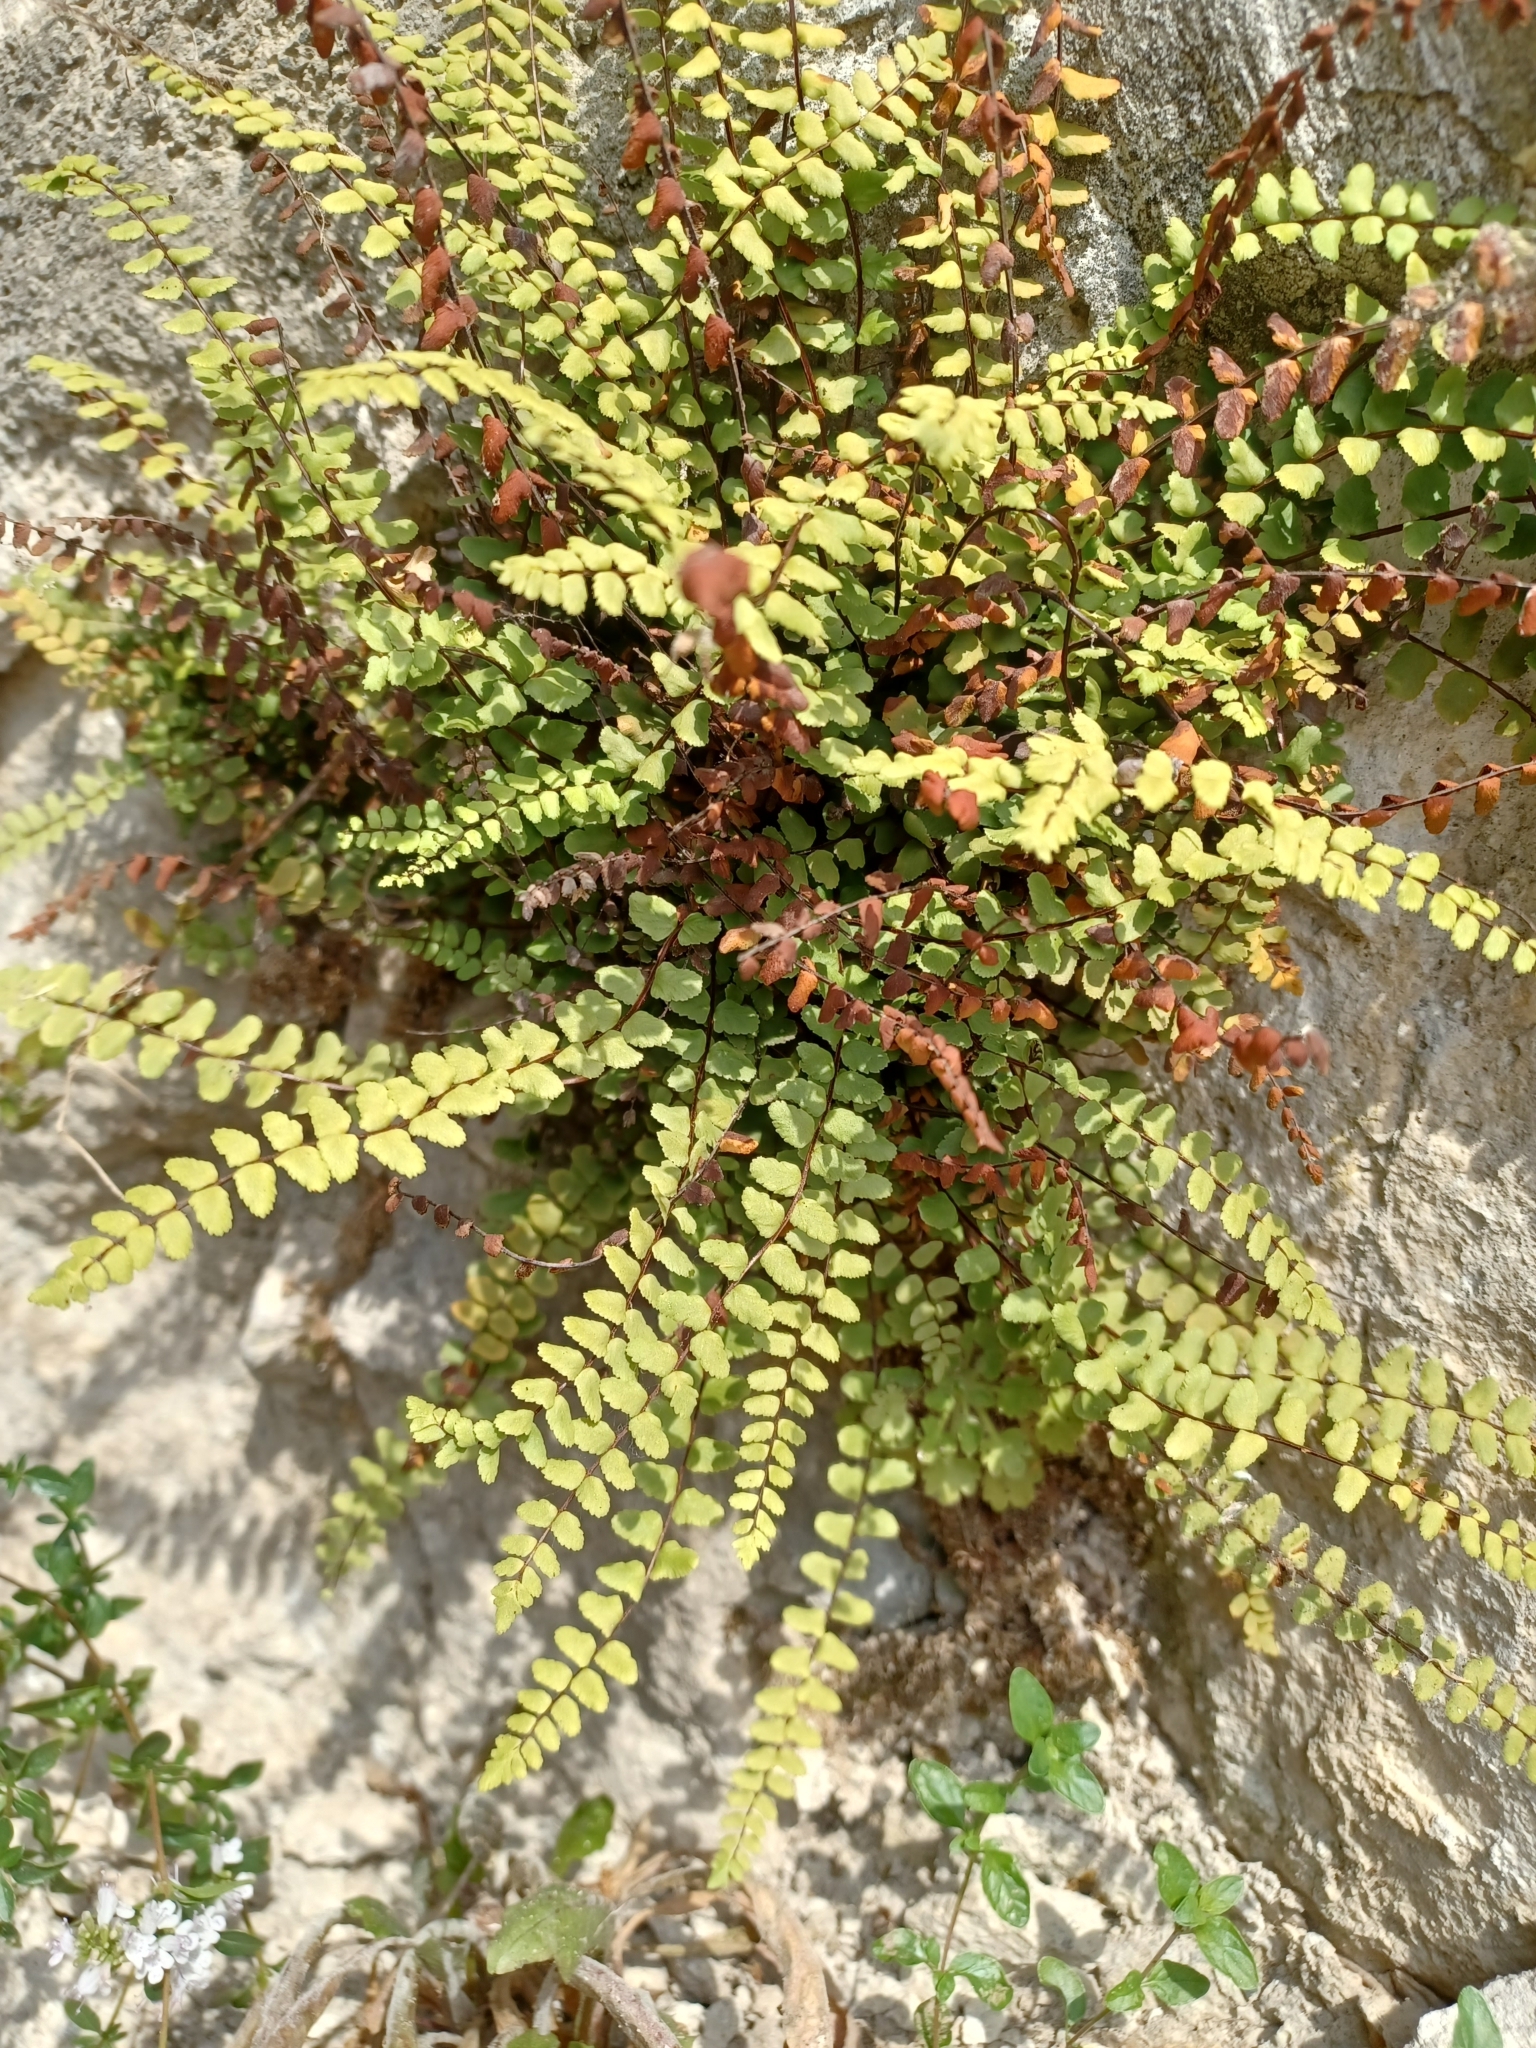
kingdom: Plantae
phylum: Tracheophyta
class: Polypodiopsida
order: Polypodiales
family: Aspleniaceae
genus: Asplenium
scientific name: Asplenium trichomanes
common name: Maidenhair spleenwort
